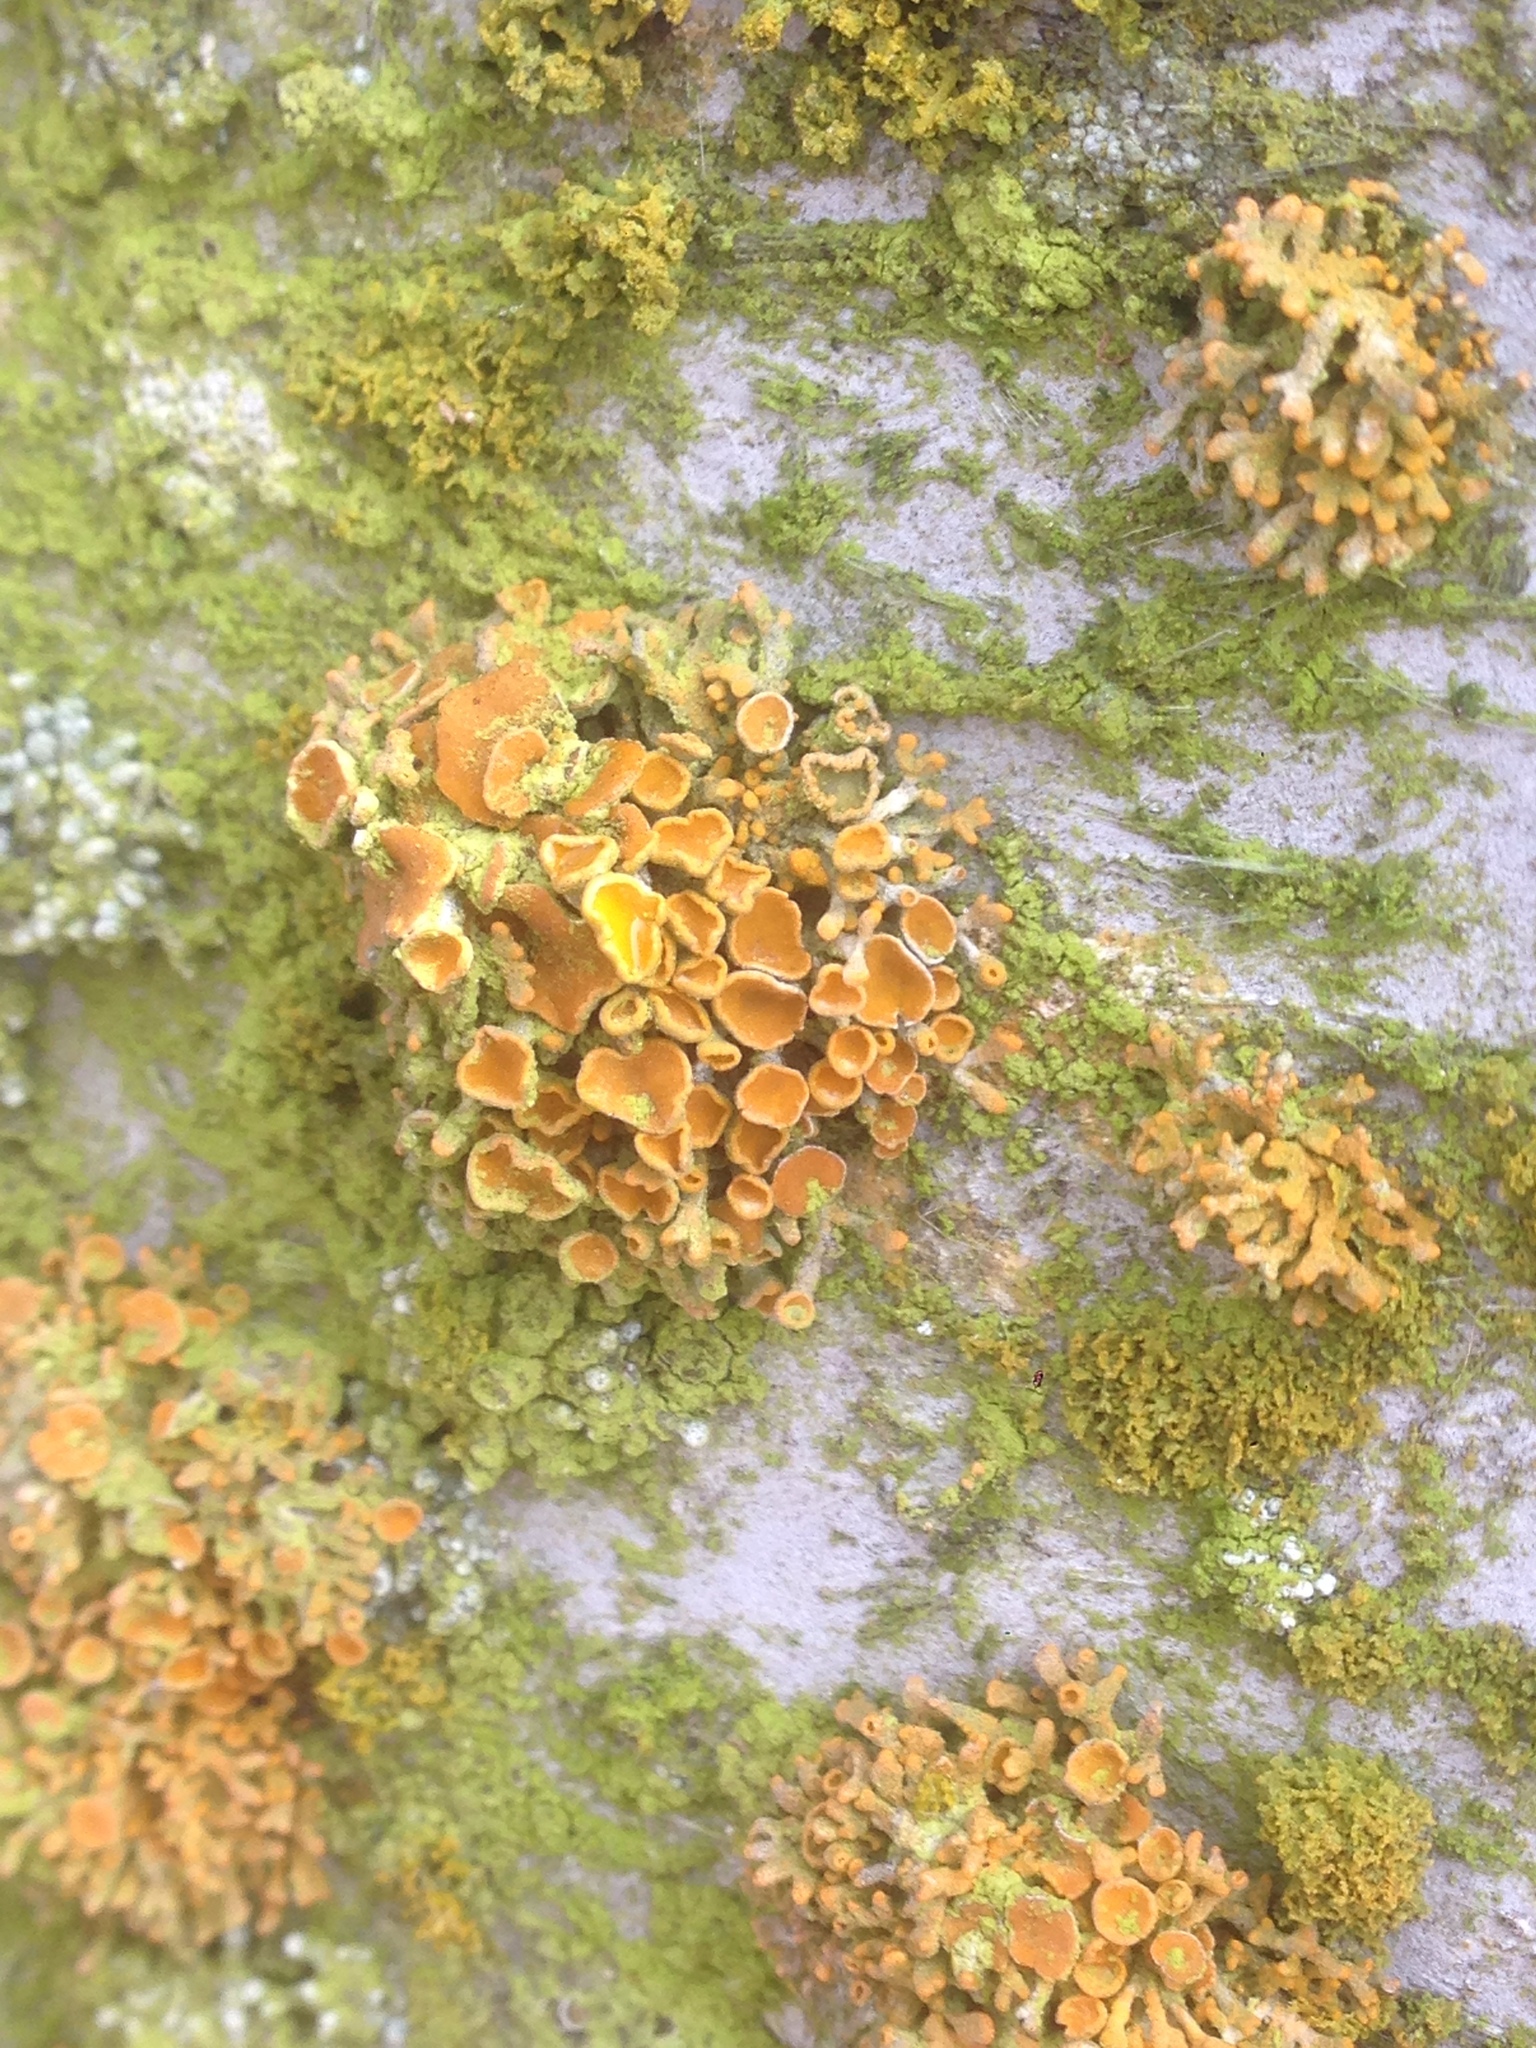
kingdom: Fungi
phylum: Ascomycota
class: Lecanoromycetes
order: Lecanorales
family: Lecanoraceae
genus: Edrudia
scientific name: Edrudia constipans
